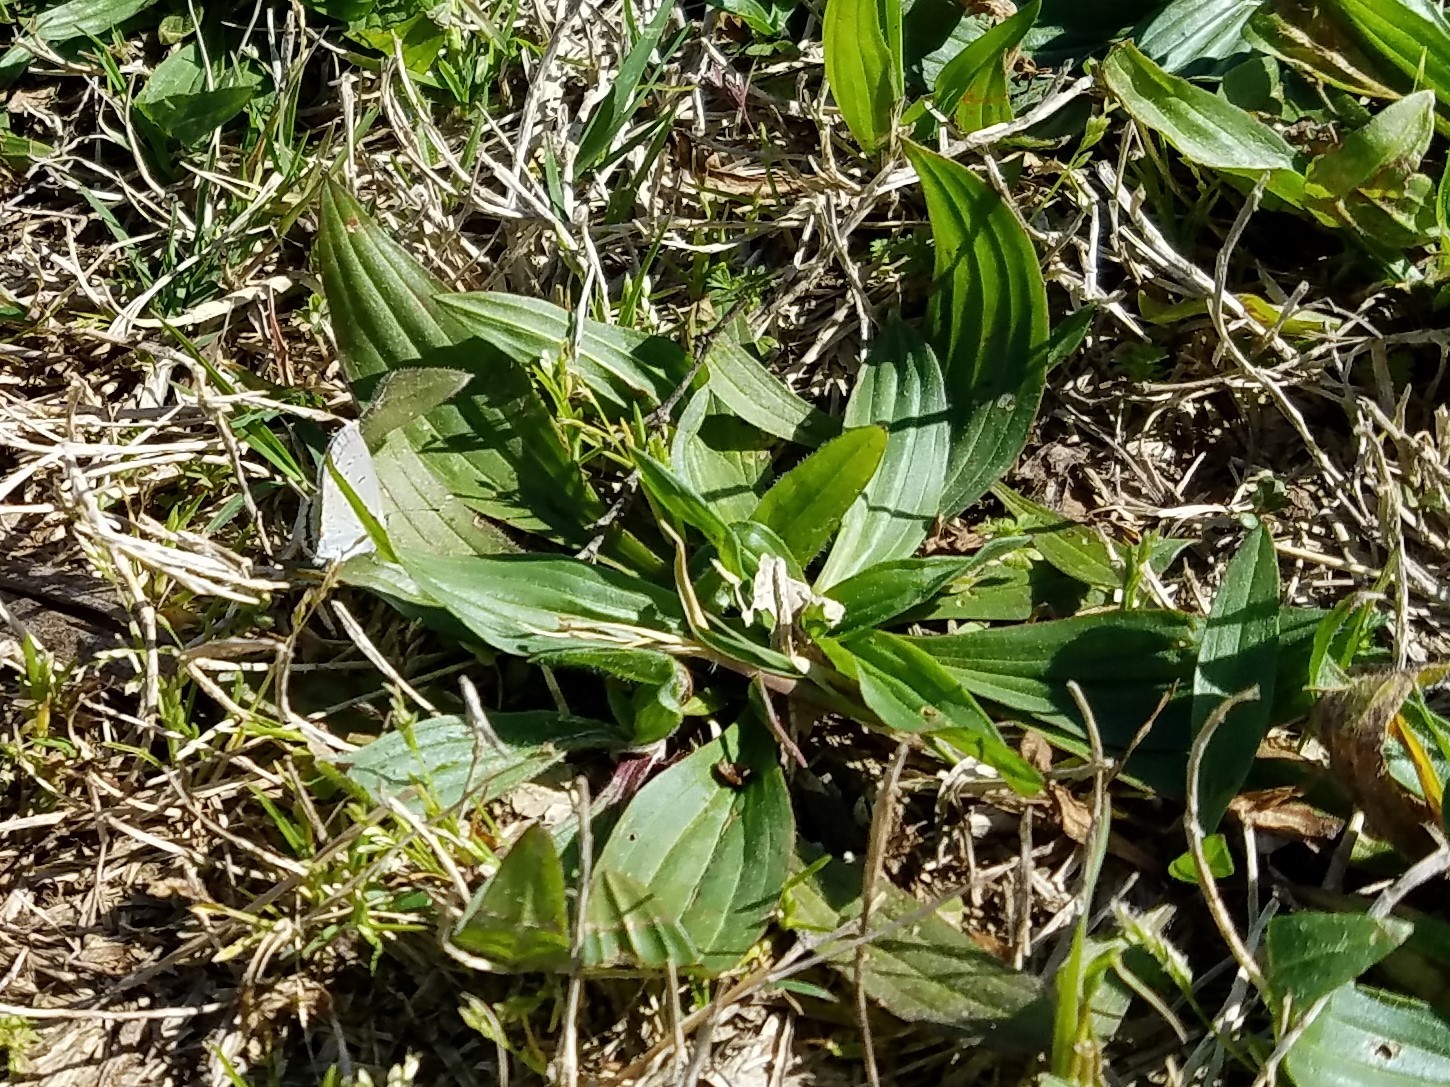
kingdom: Plantae
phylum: Tracheophyta
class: Magnoliopsida
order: Lamiales
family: Plantaginaceae
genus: Plantago
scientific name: Plantago lanceolata
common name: Ribwort plantain
